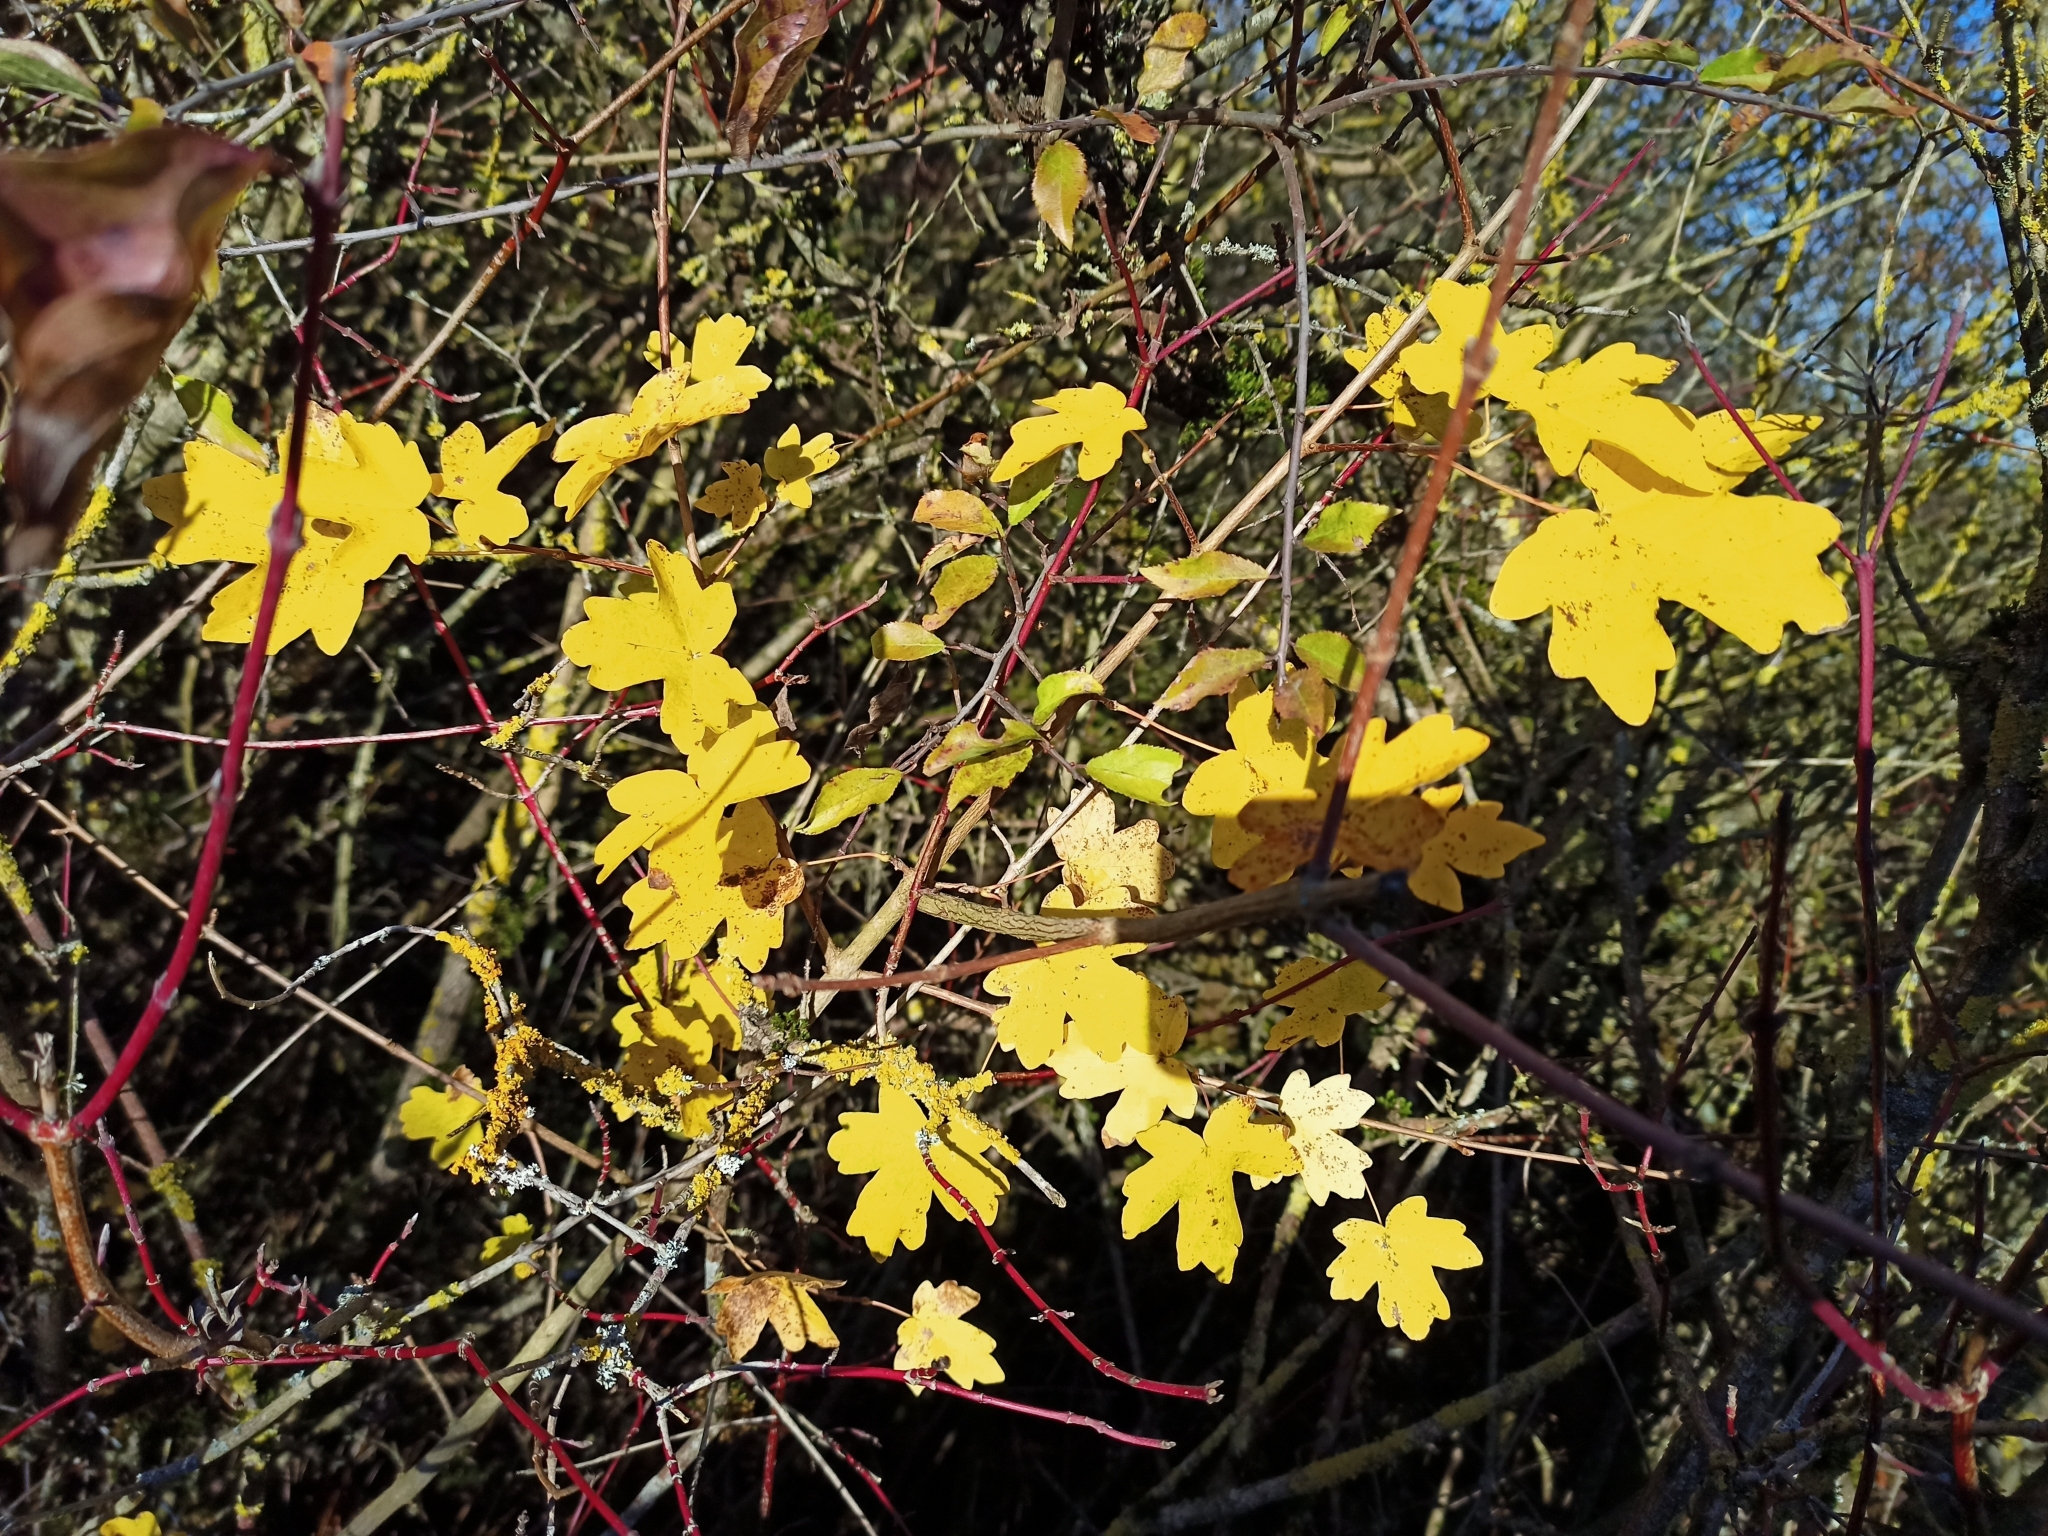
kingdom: Plantae
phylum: Tracheophyta
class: Magnoliopsida
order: Sapindales
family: Sapindaceae
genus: Acer
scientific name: Acer campestre
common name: Field maple
